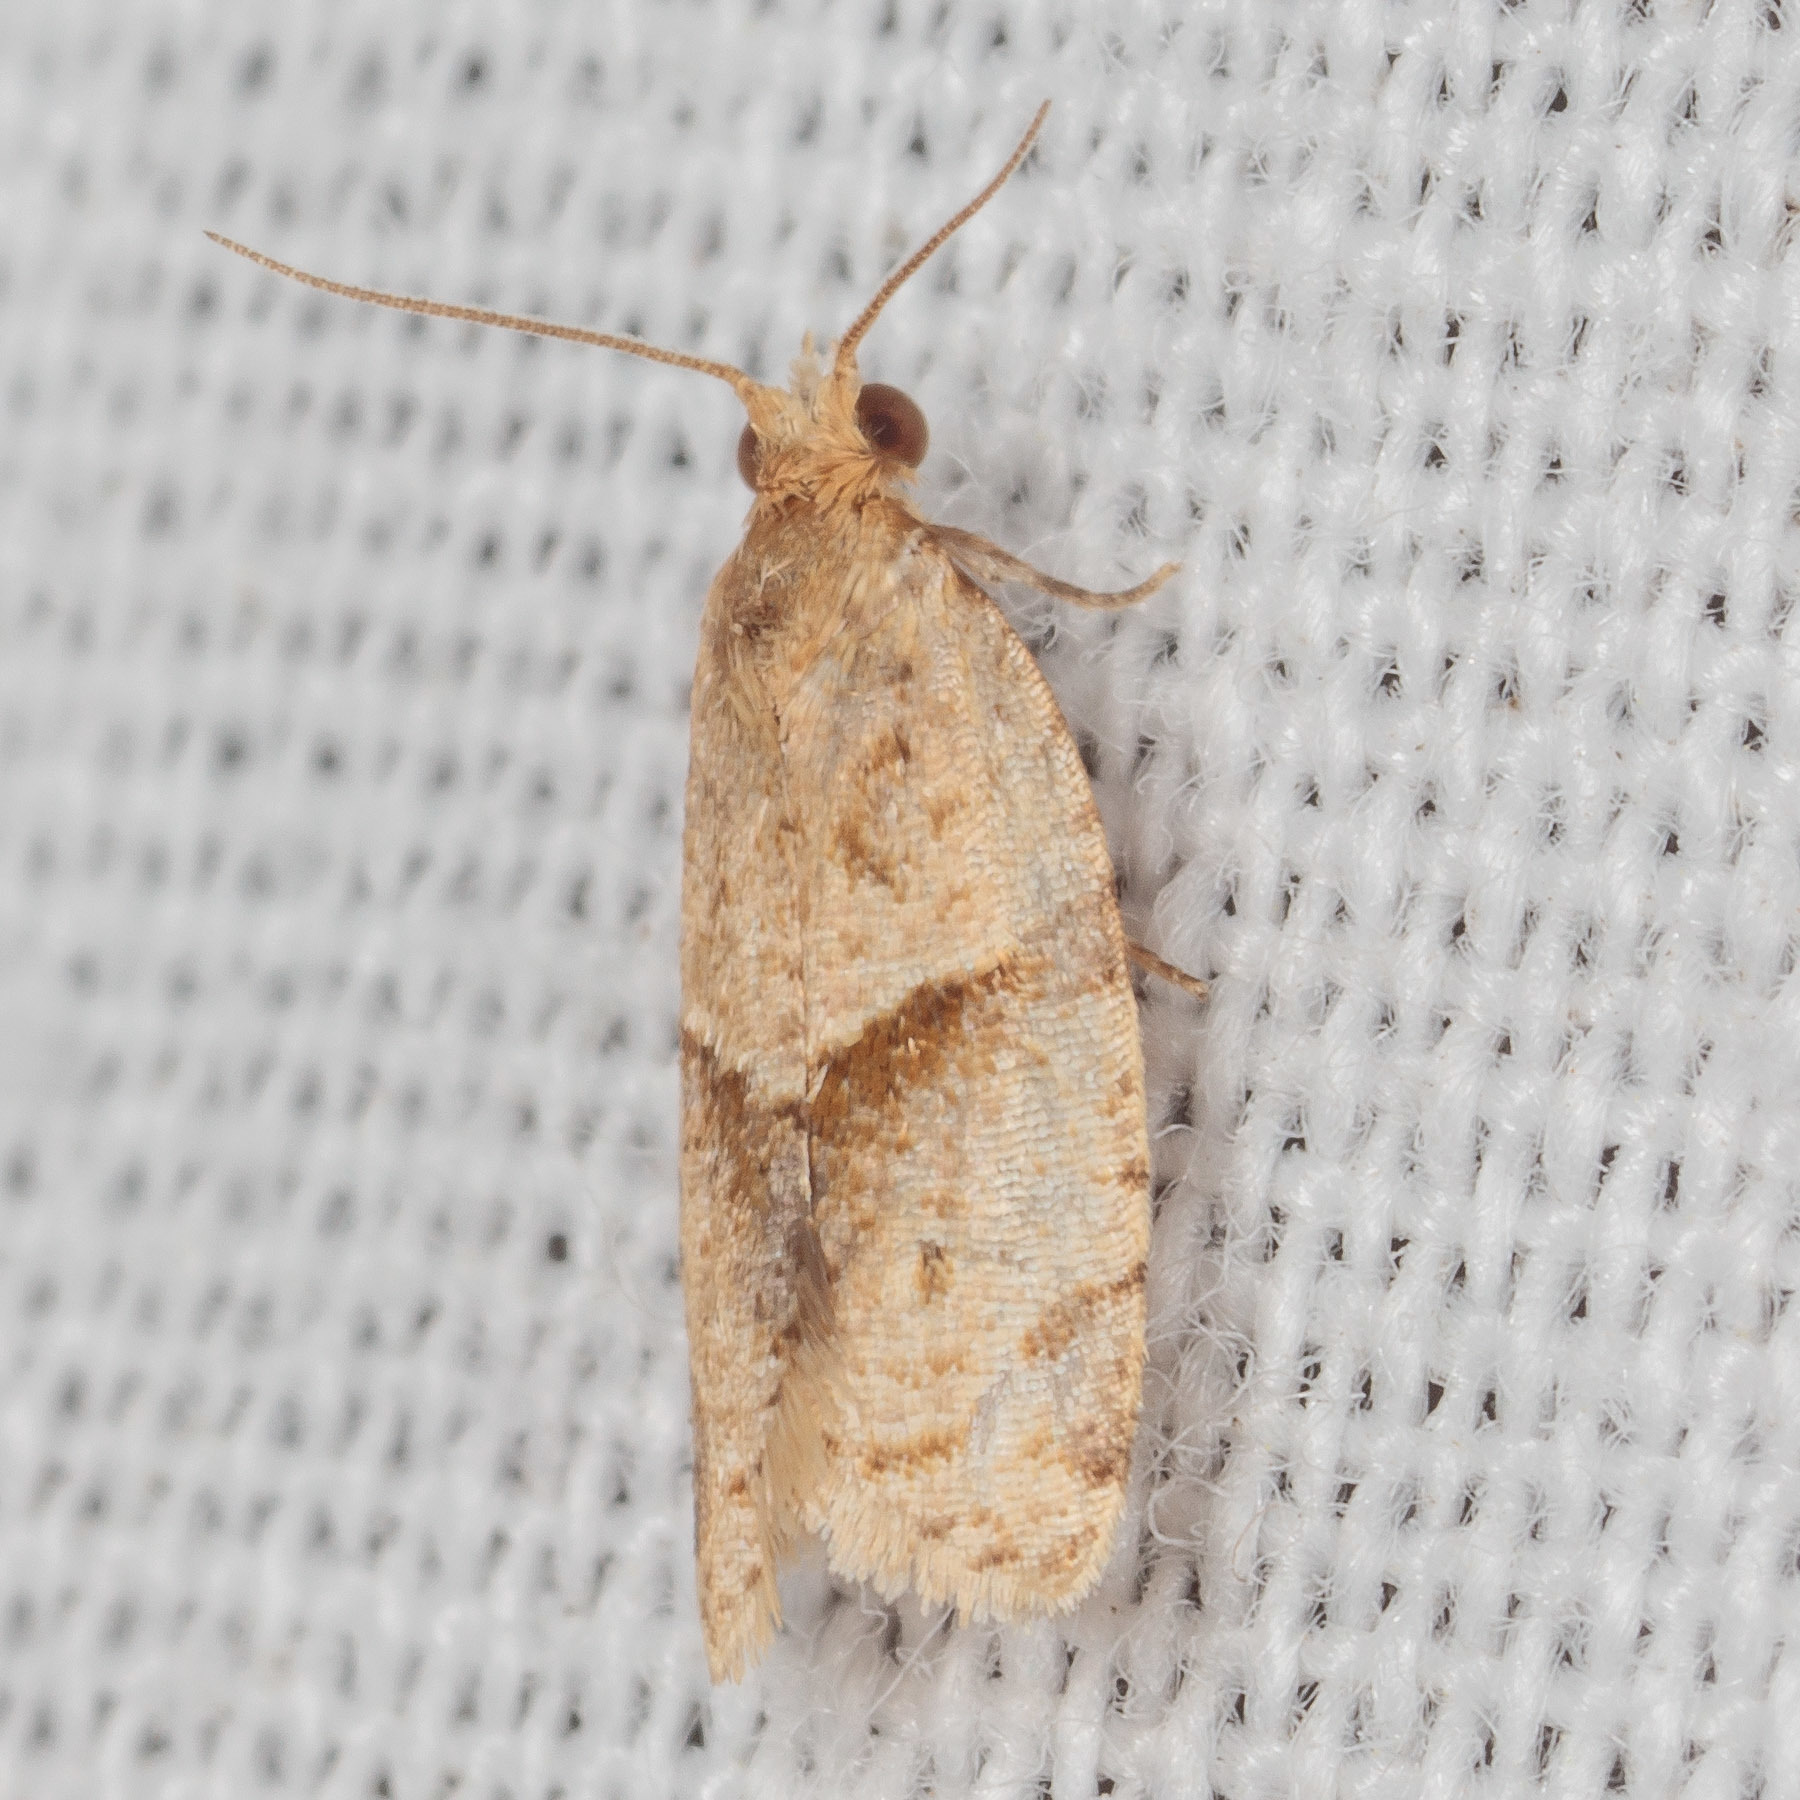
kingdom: Animalia
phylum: Arthropoda
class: Insecta
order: Lepidoptera
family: Tortricidae
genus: Clepsis
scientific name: Clepsis peritana
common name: Garden tortrix
